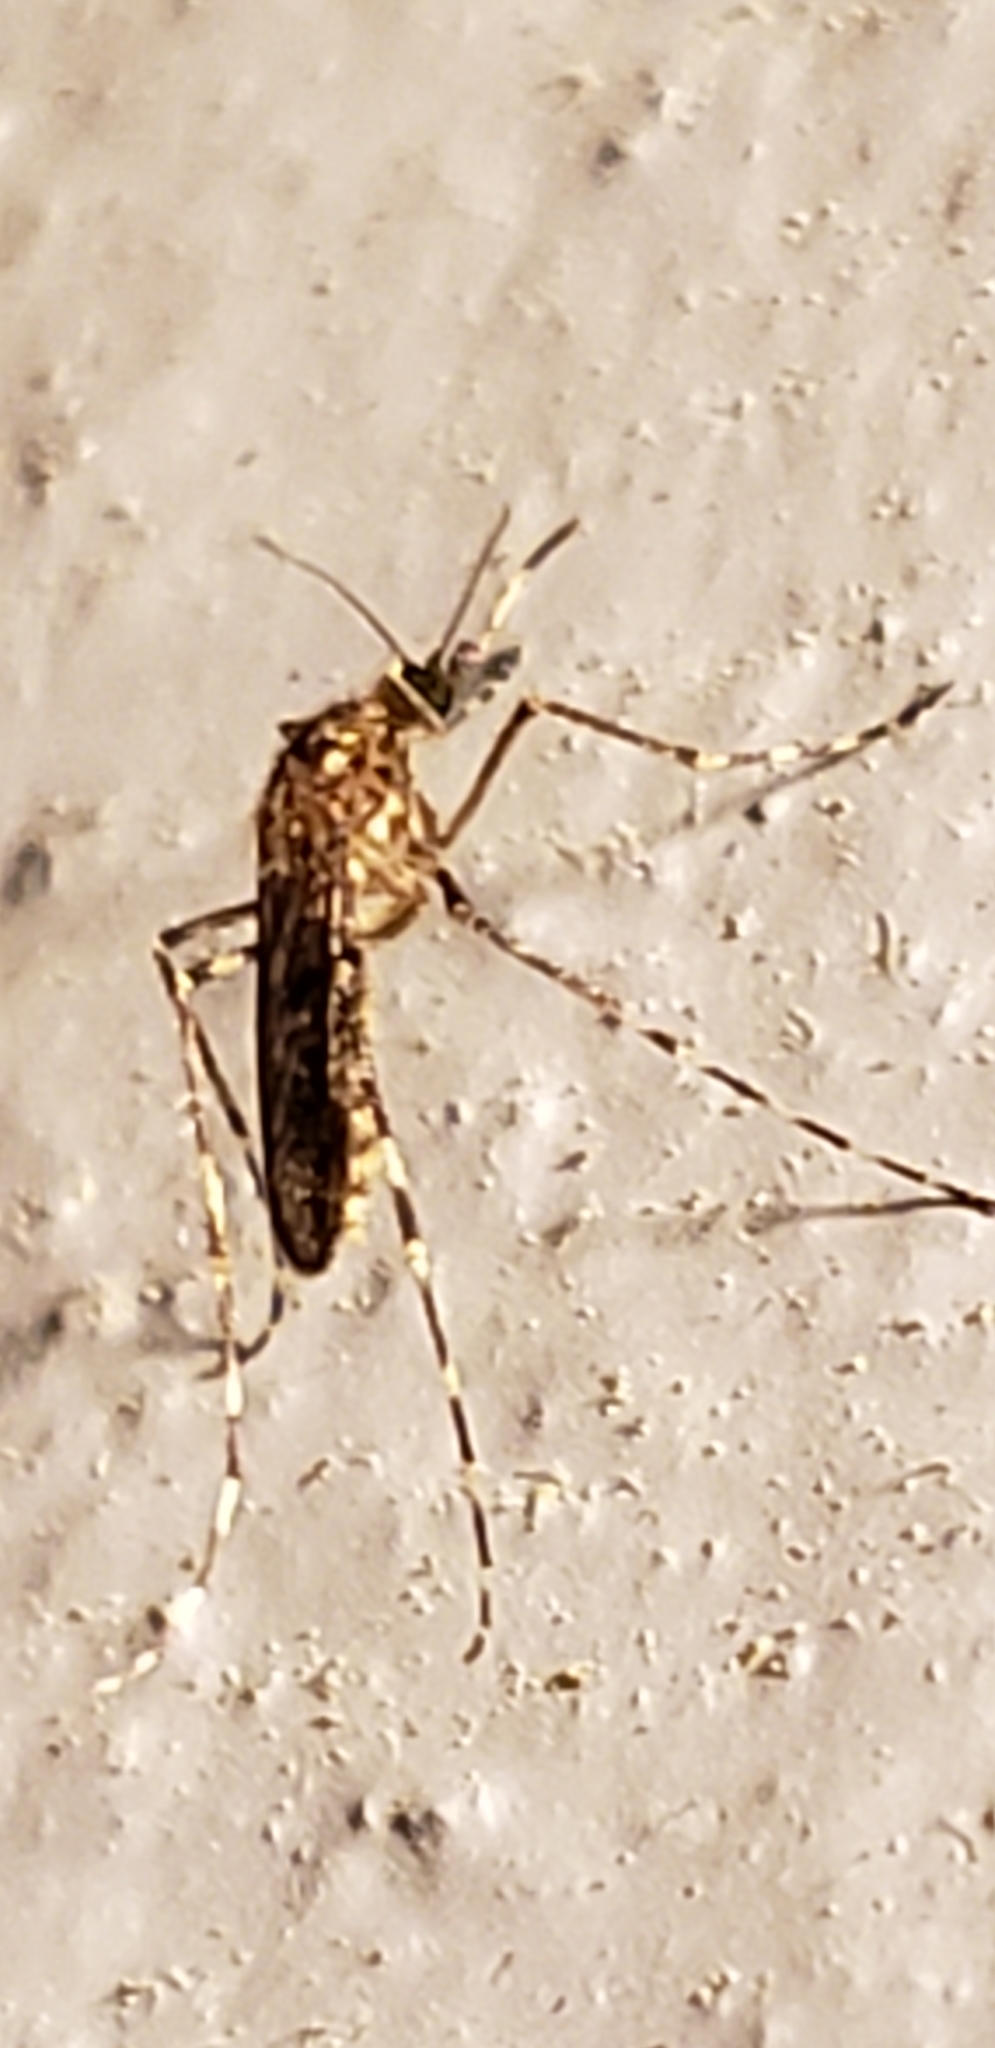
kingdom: Animalia
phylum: Arthropoda
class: Insecta
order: Diptera
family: Culicidae
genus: Coquillettidia
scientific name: Coquillettidia perturbans
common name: Cattail mosquito
